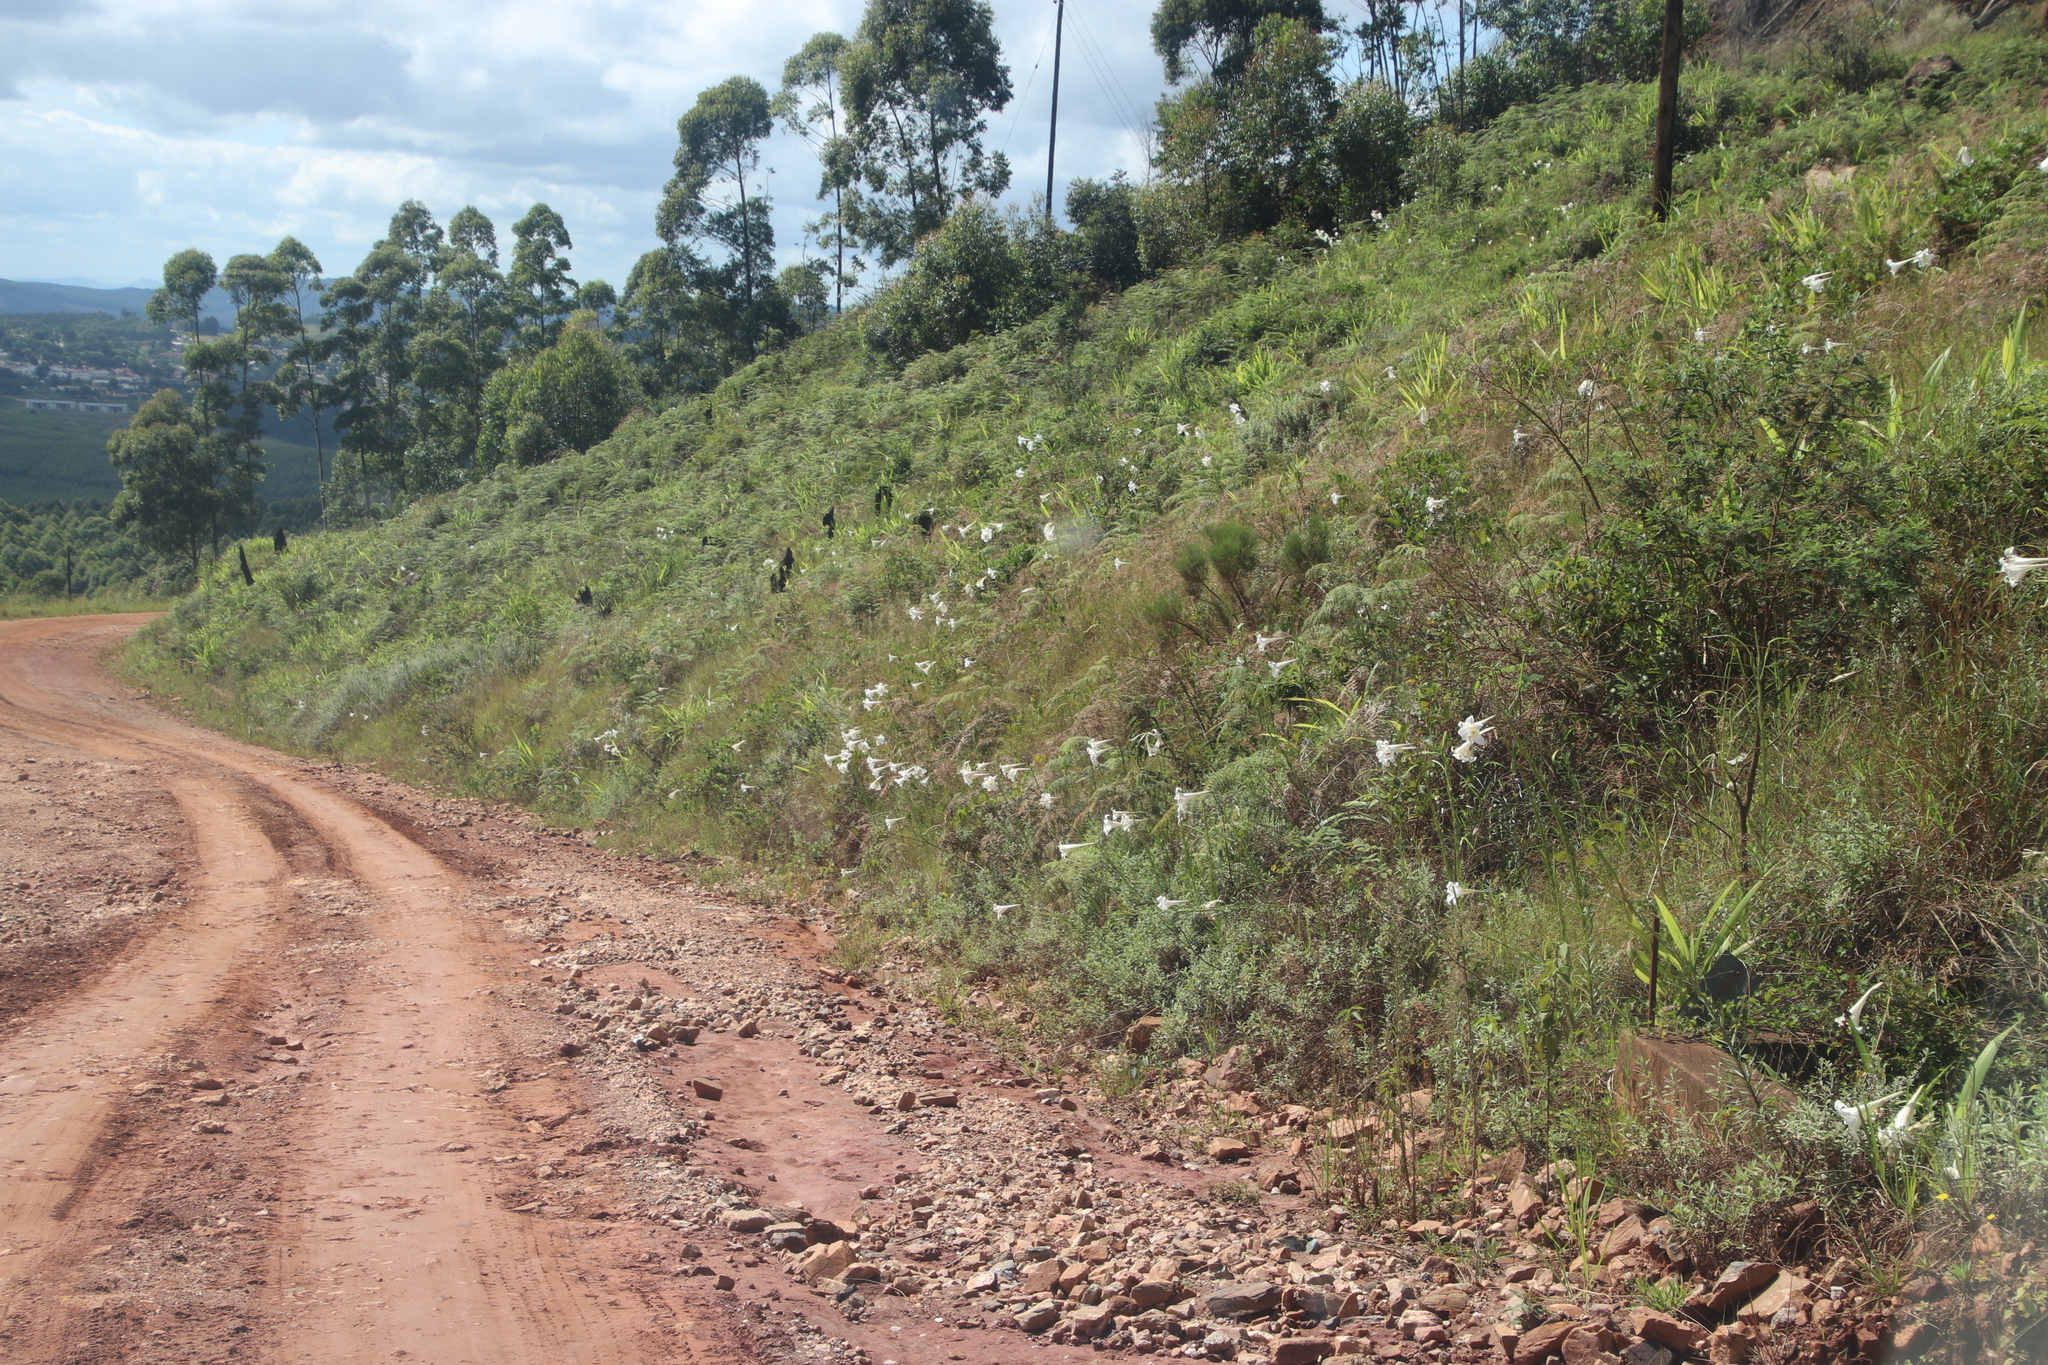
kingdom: Plantae
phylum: Tracheophyta
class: Liliopsida
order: Liliales
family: Liliaceae
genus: Lilium
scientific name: Lilium formosanum
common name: Formosa lily
